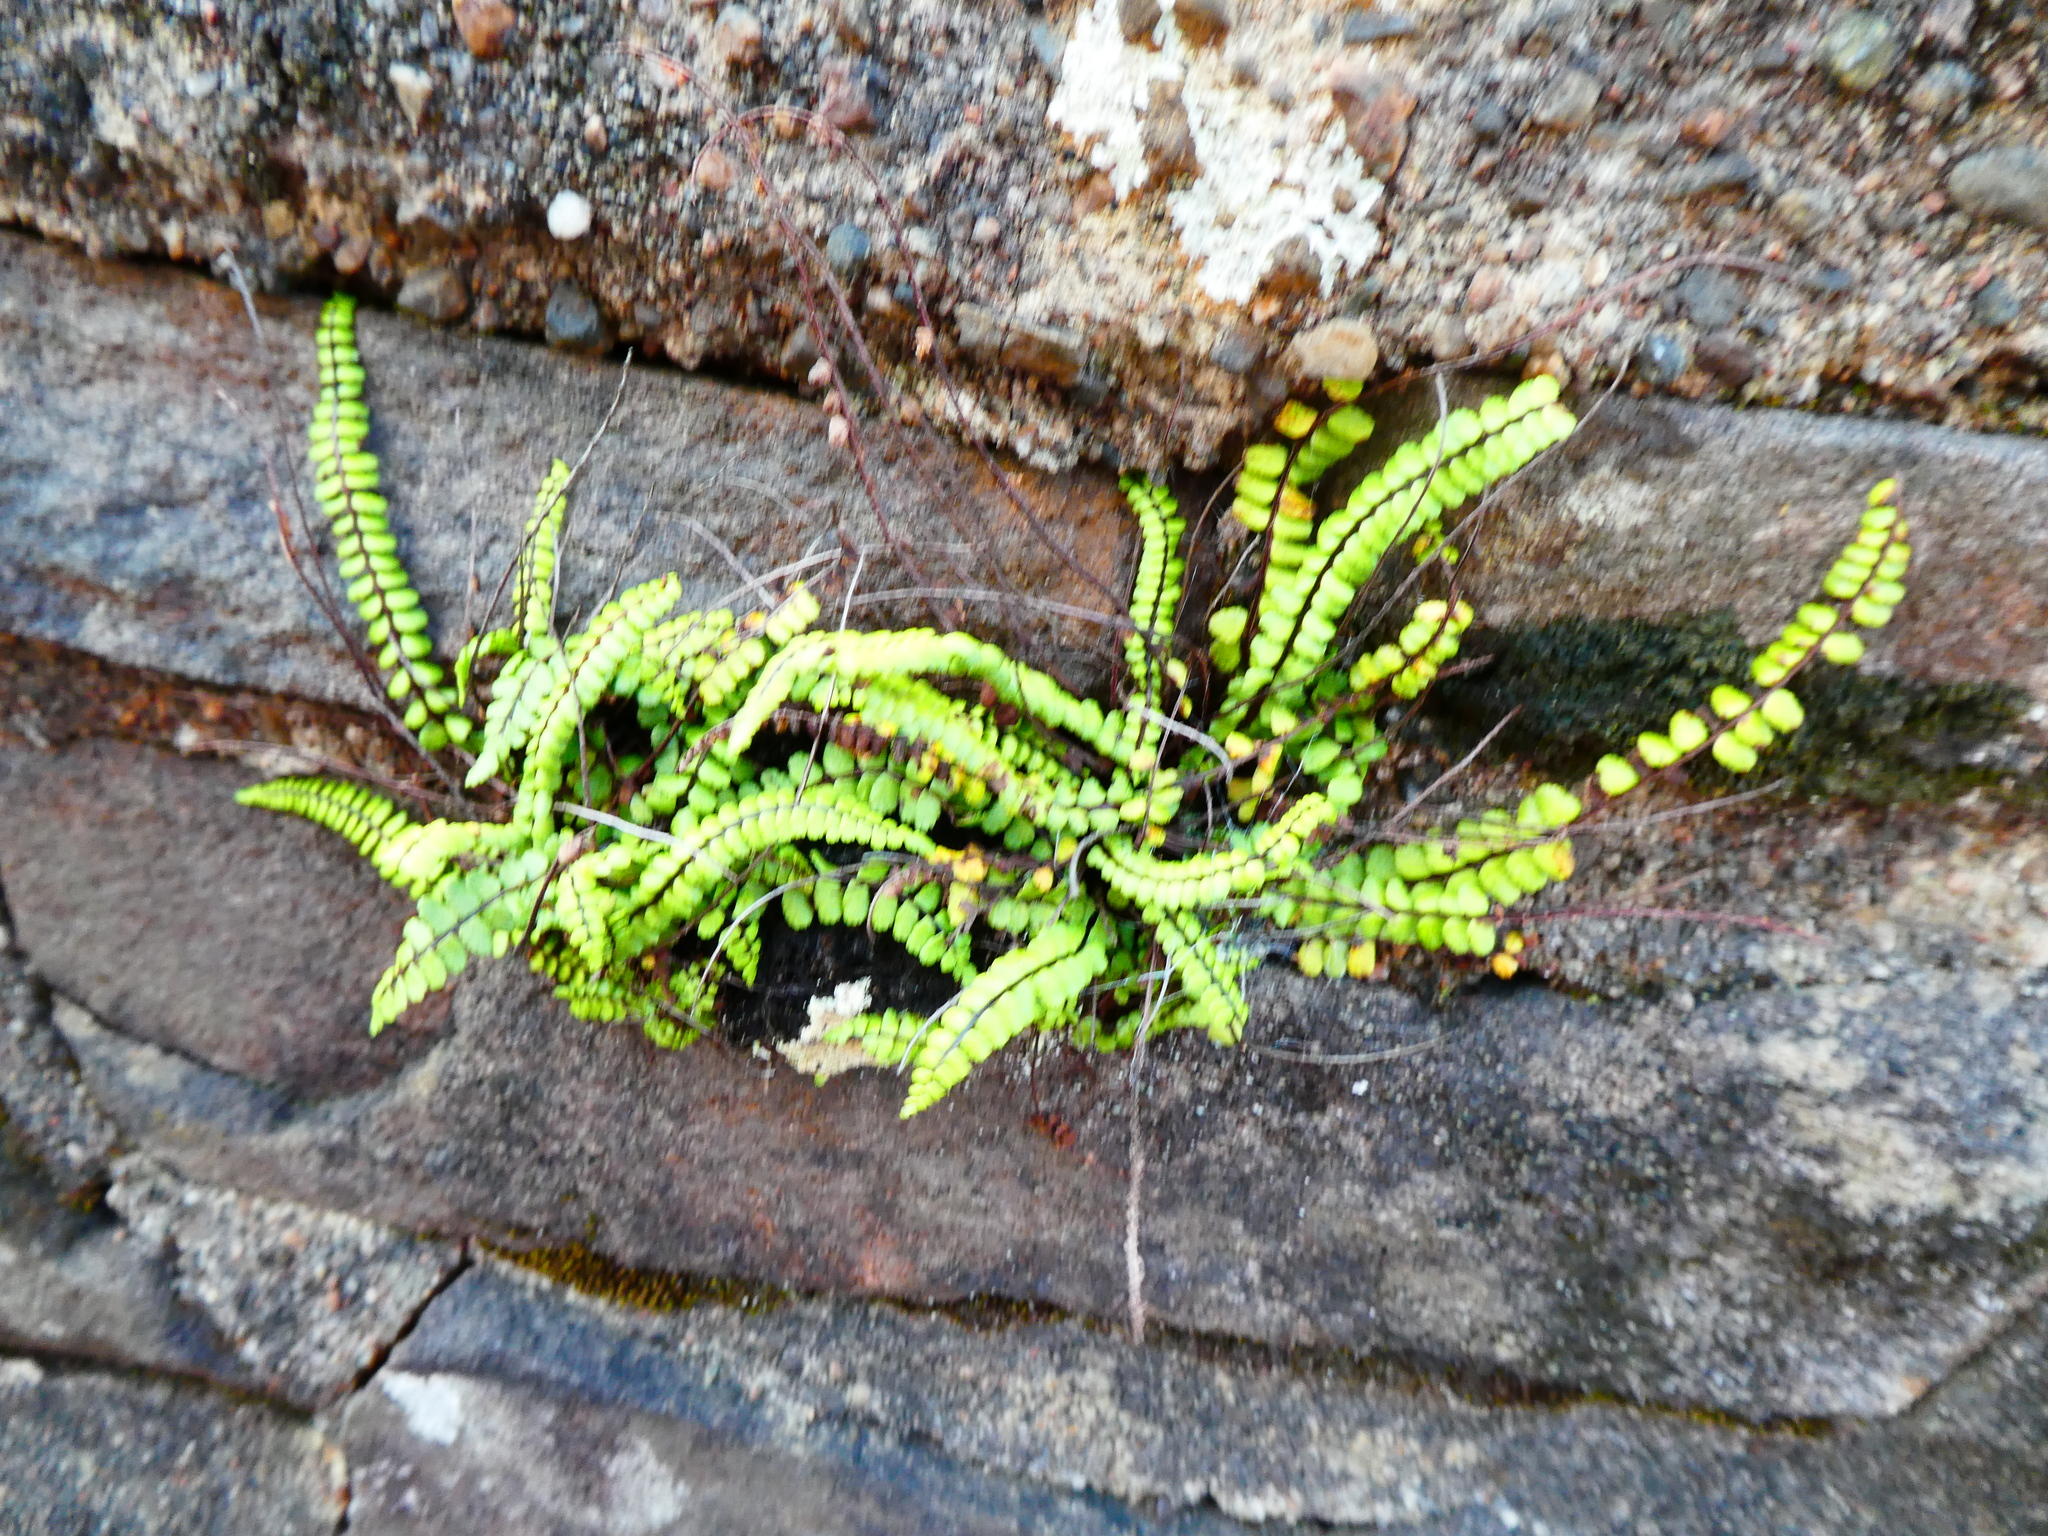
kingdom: Plantae
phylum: Tracheophyta
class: Polypodiopsida
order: Polypodiales
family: Aspleniaceae
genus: Asplenium
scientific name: Asplenium trichomanes
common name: Maidenhair spleenwort
